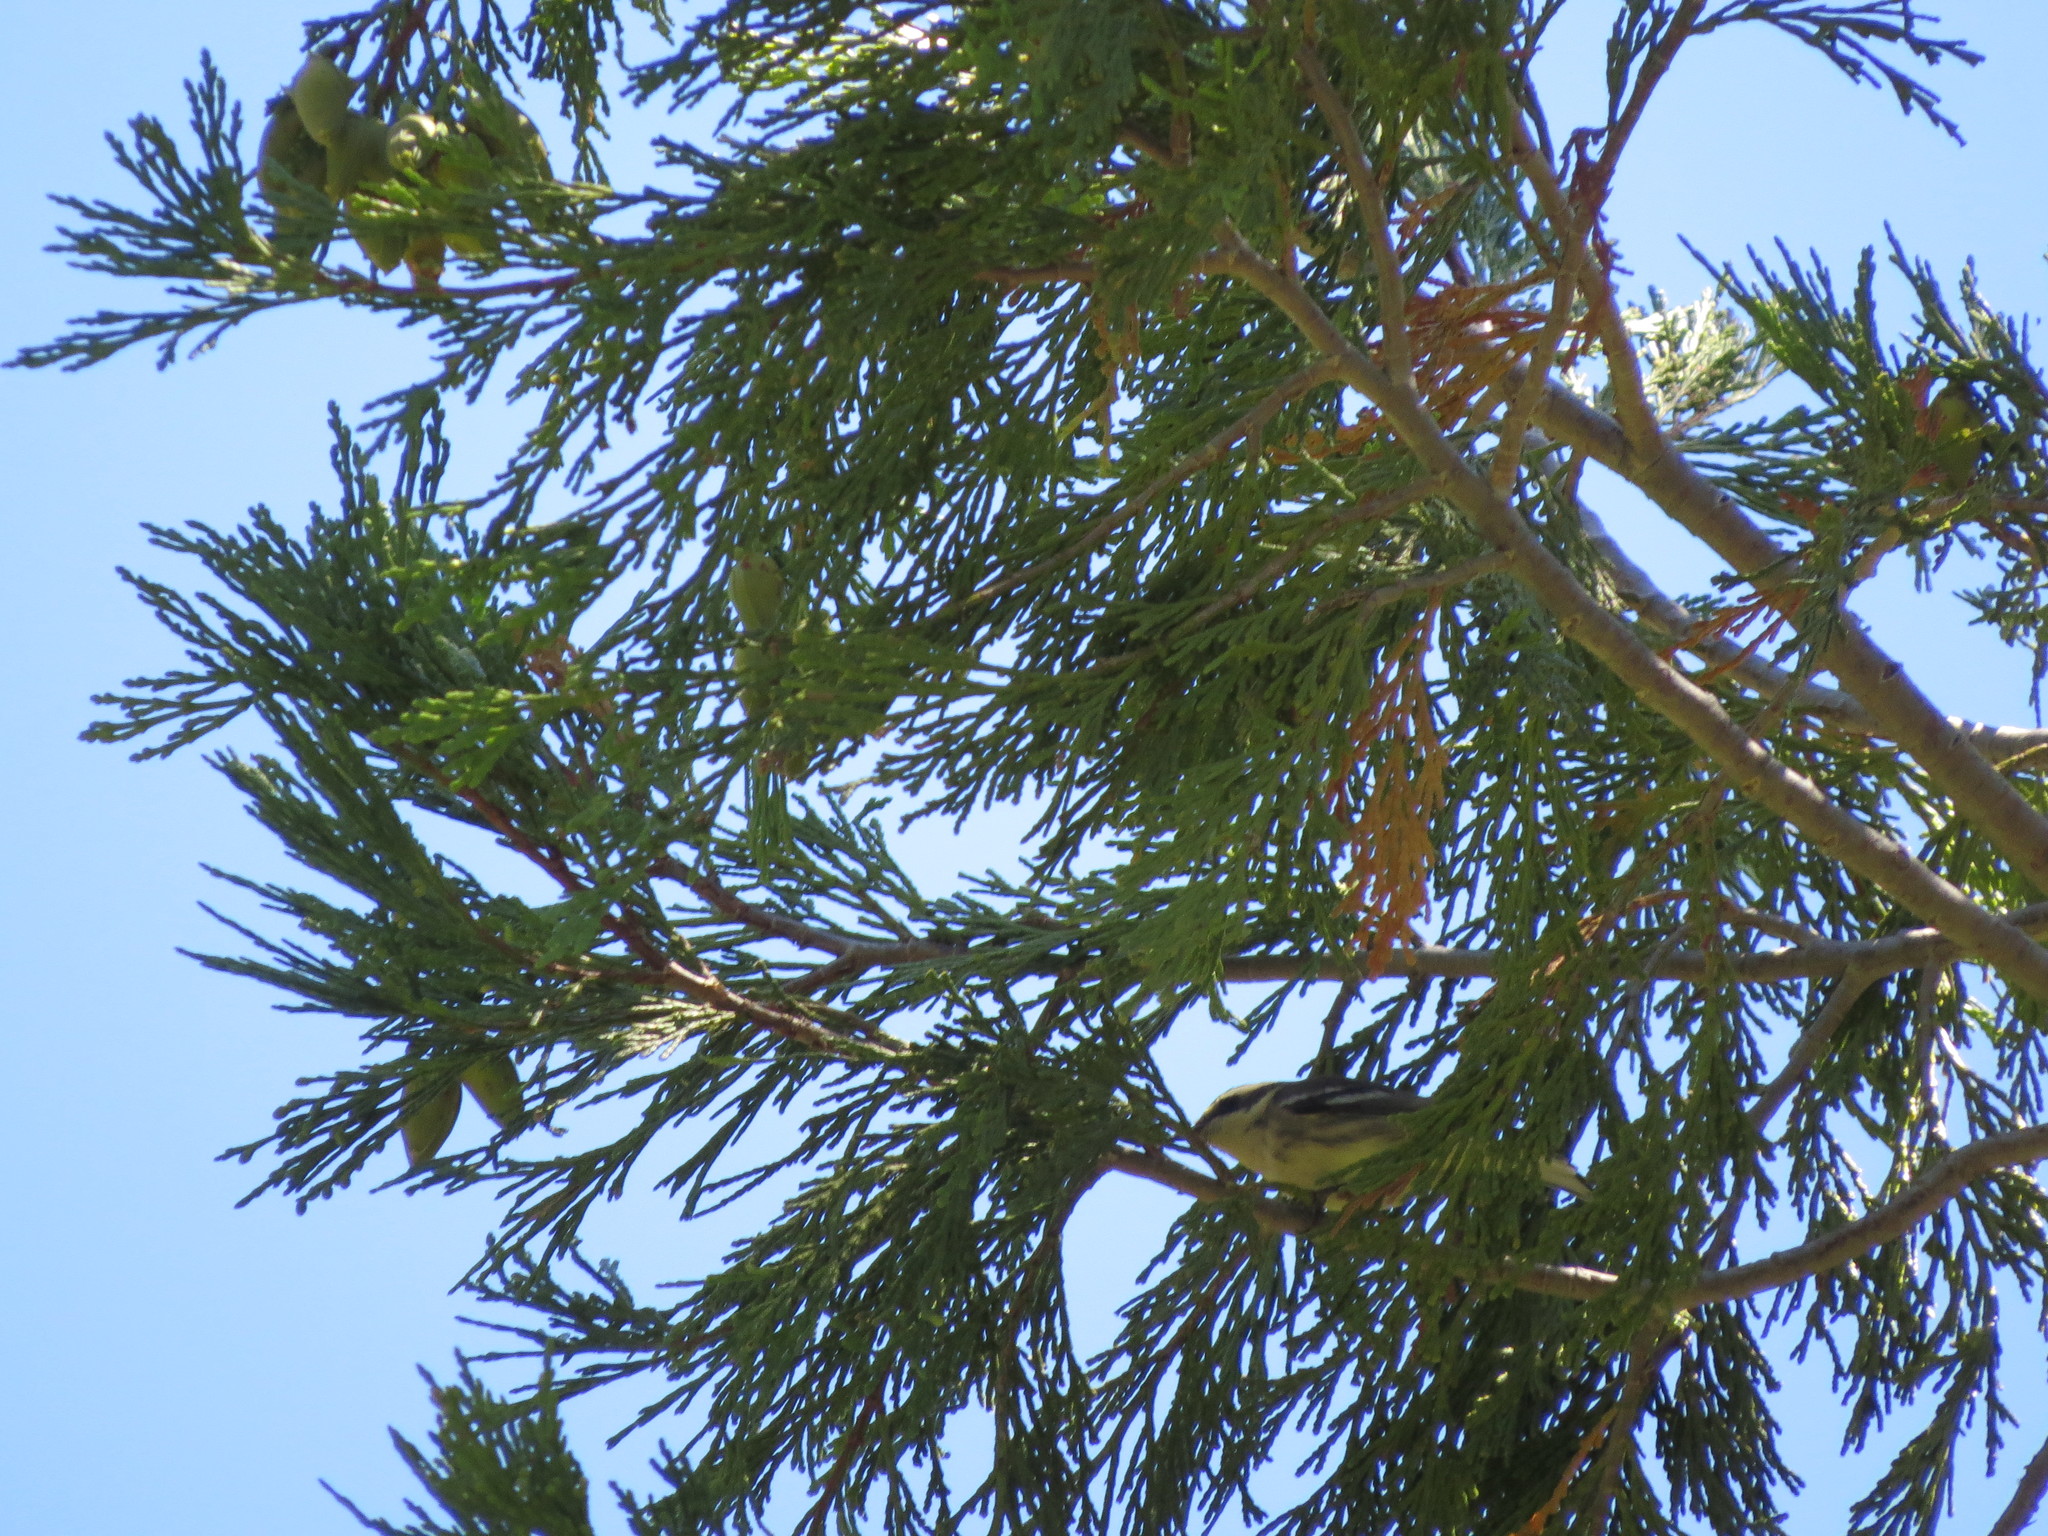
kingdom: Animalia
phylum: Chordata
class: Aves
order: Passeriformes
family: Parulidae
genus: Setophaga
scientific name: Setophaga nigrescens
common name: Black-throated gray warbler
